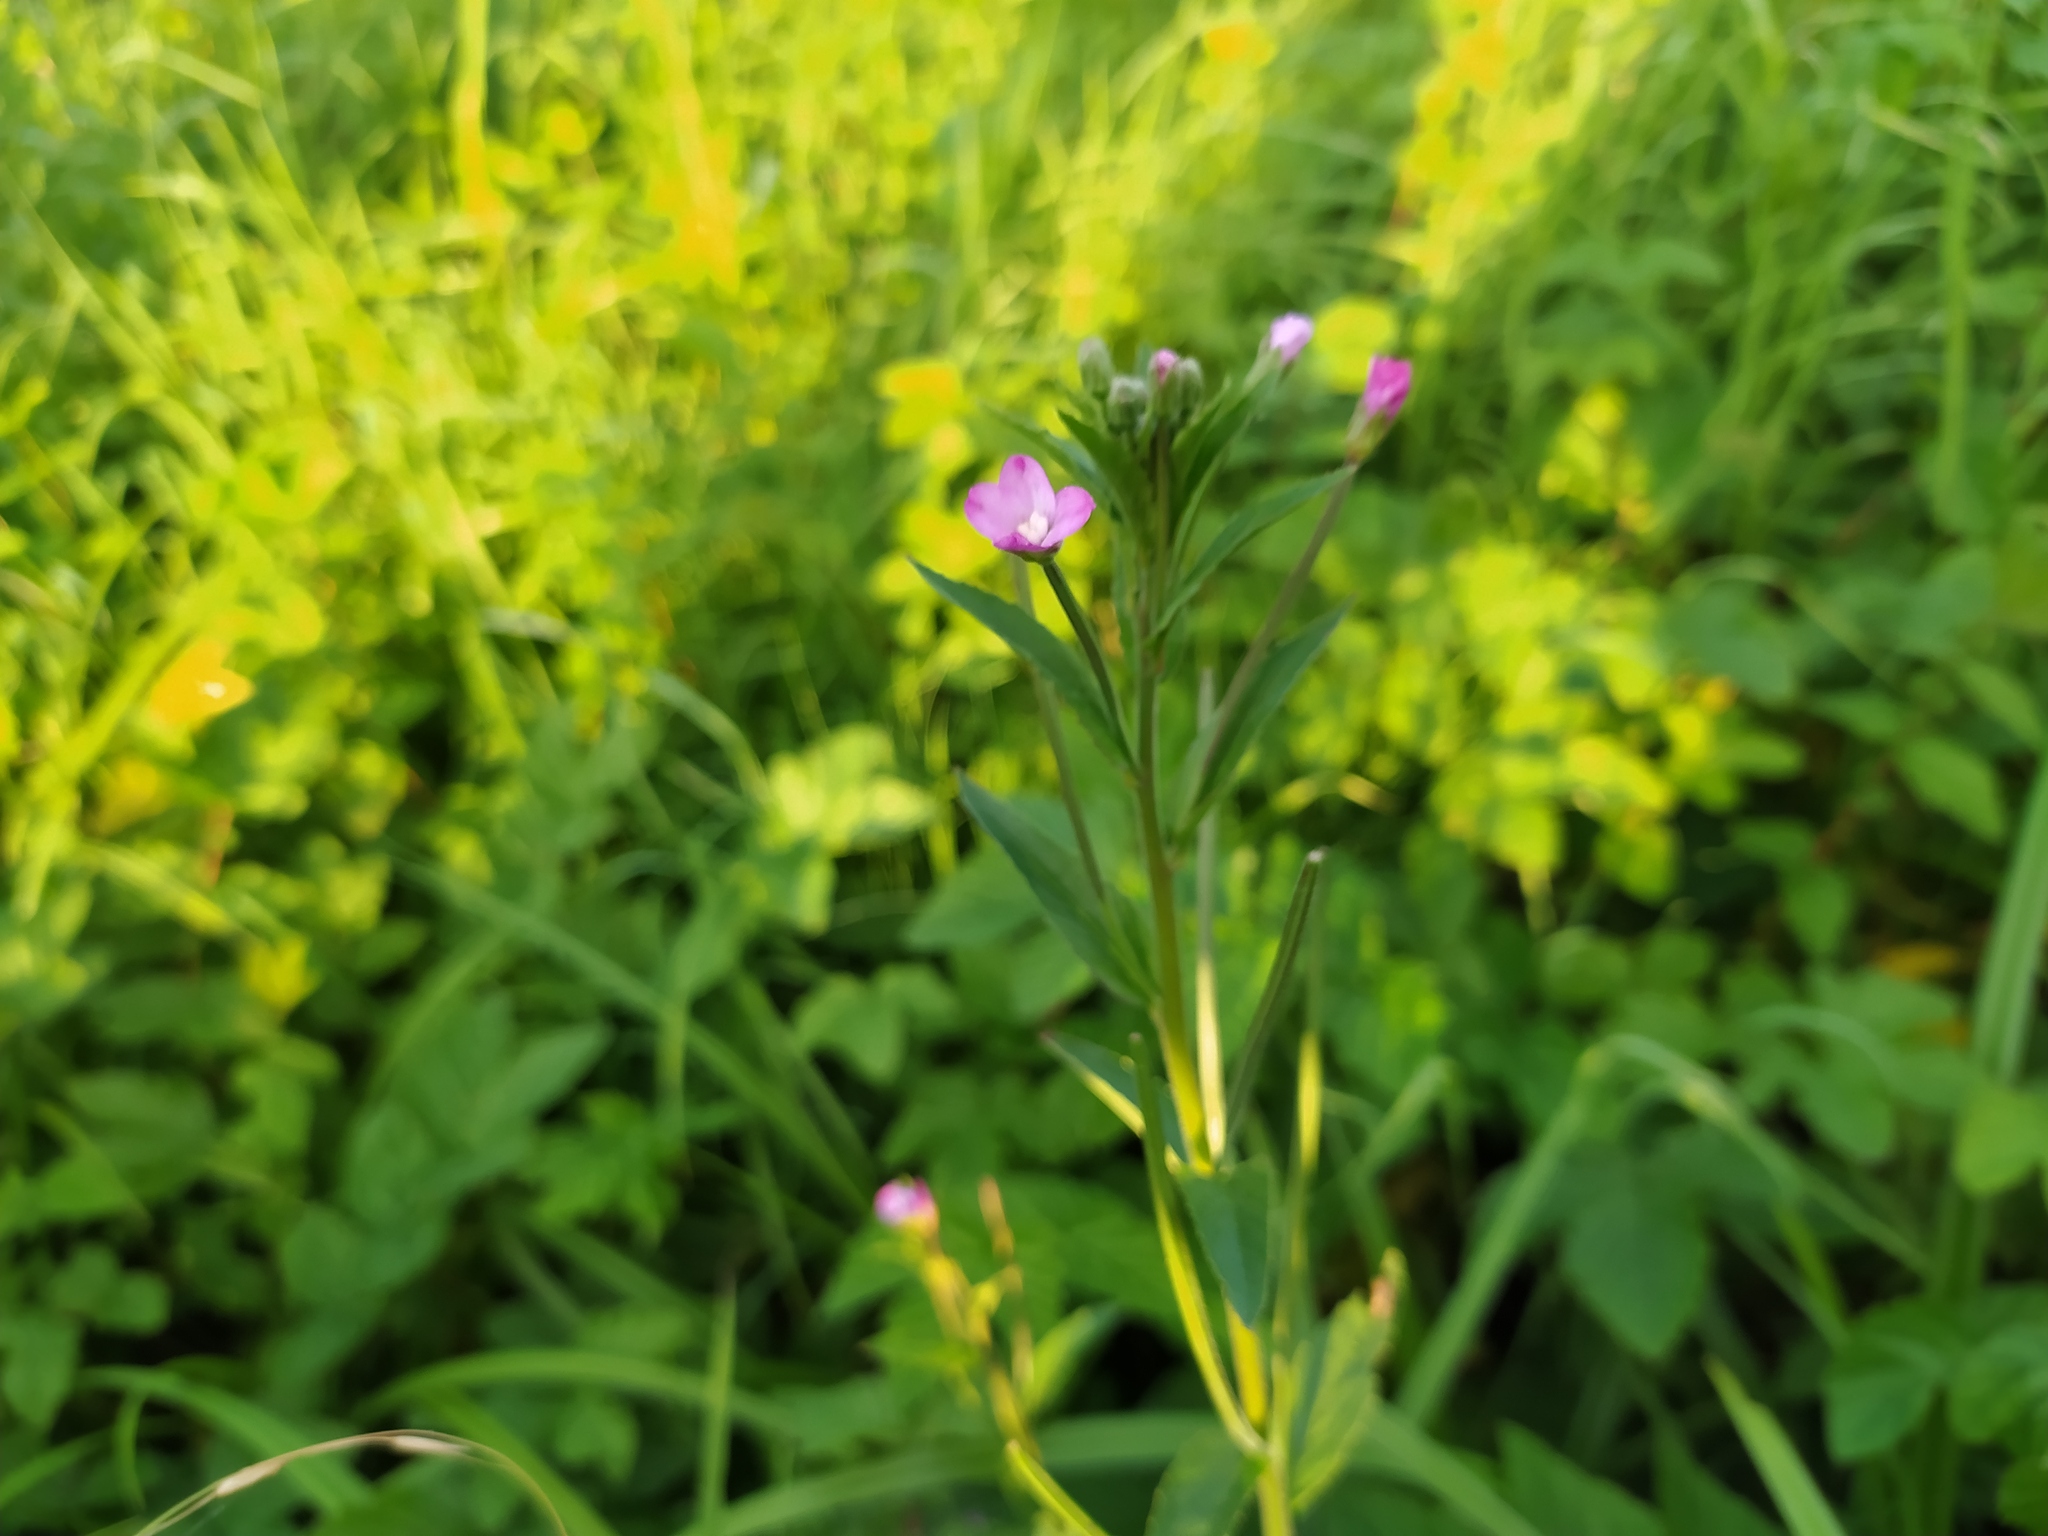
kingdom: Plantae
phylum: Tracheophyta
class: Magnoliopsida
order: Myrtales
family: Onagraceae
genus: Epilobium
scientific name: Epilobium hirsutum
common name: Great willowherb
